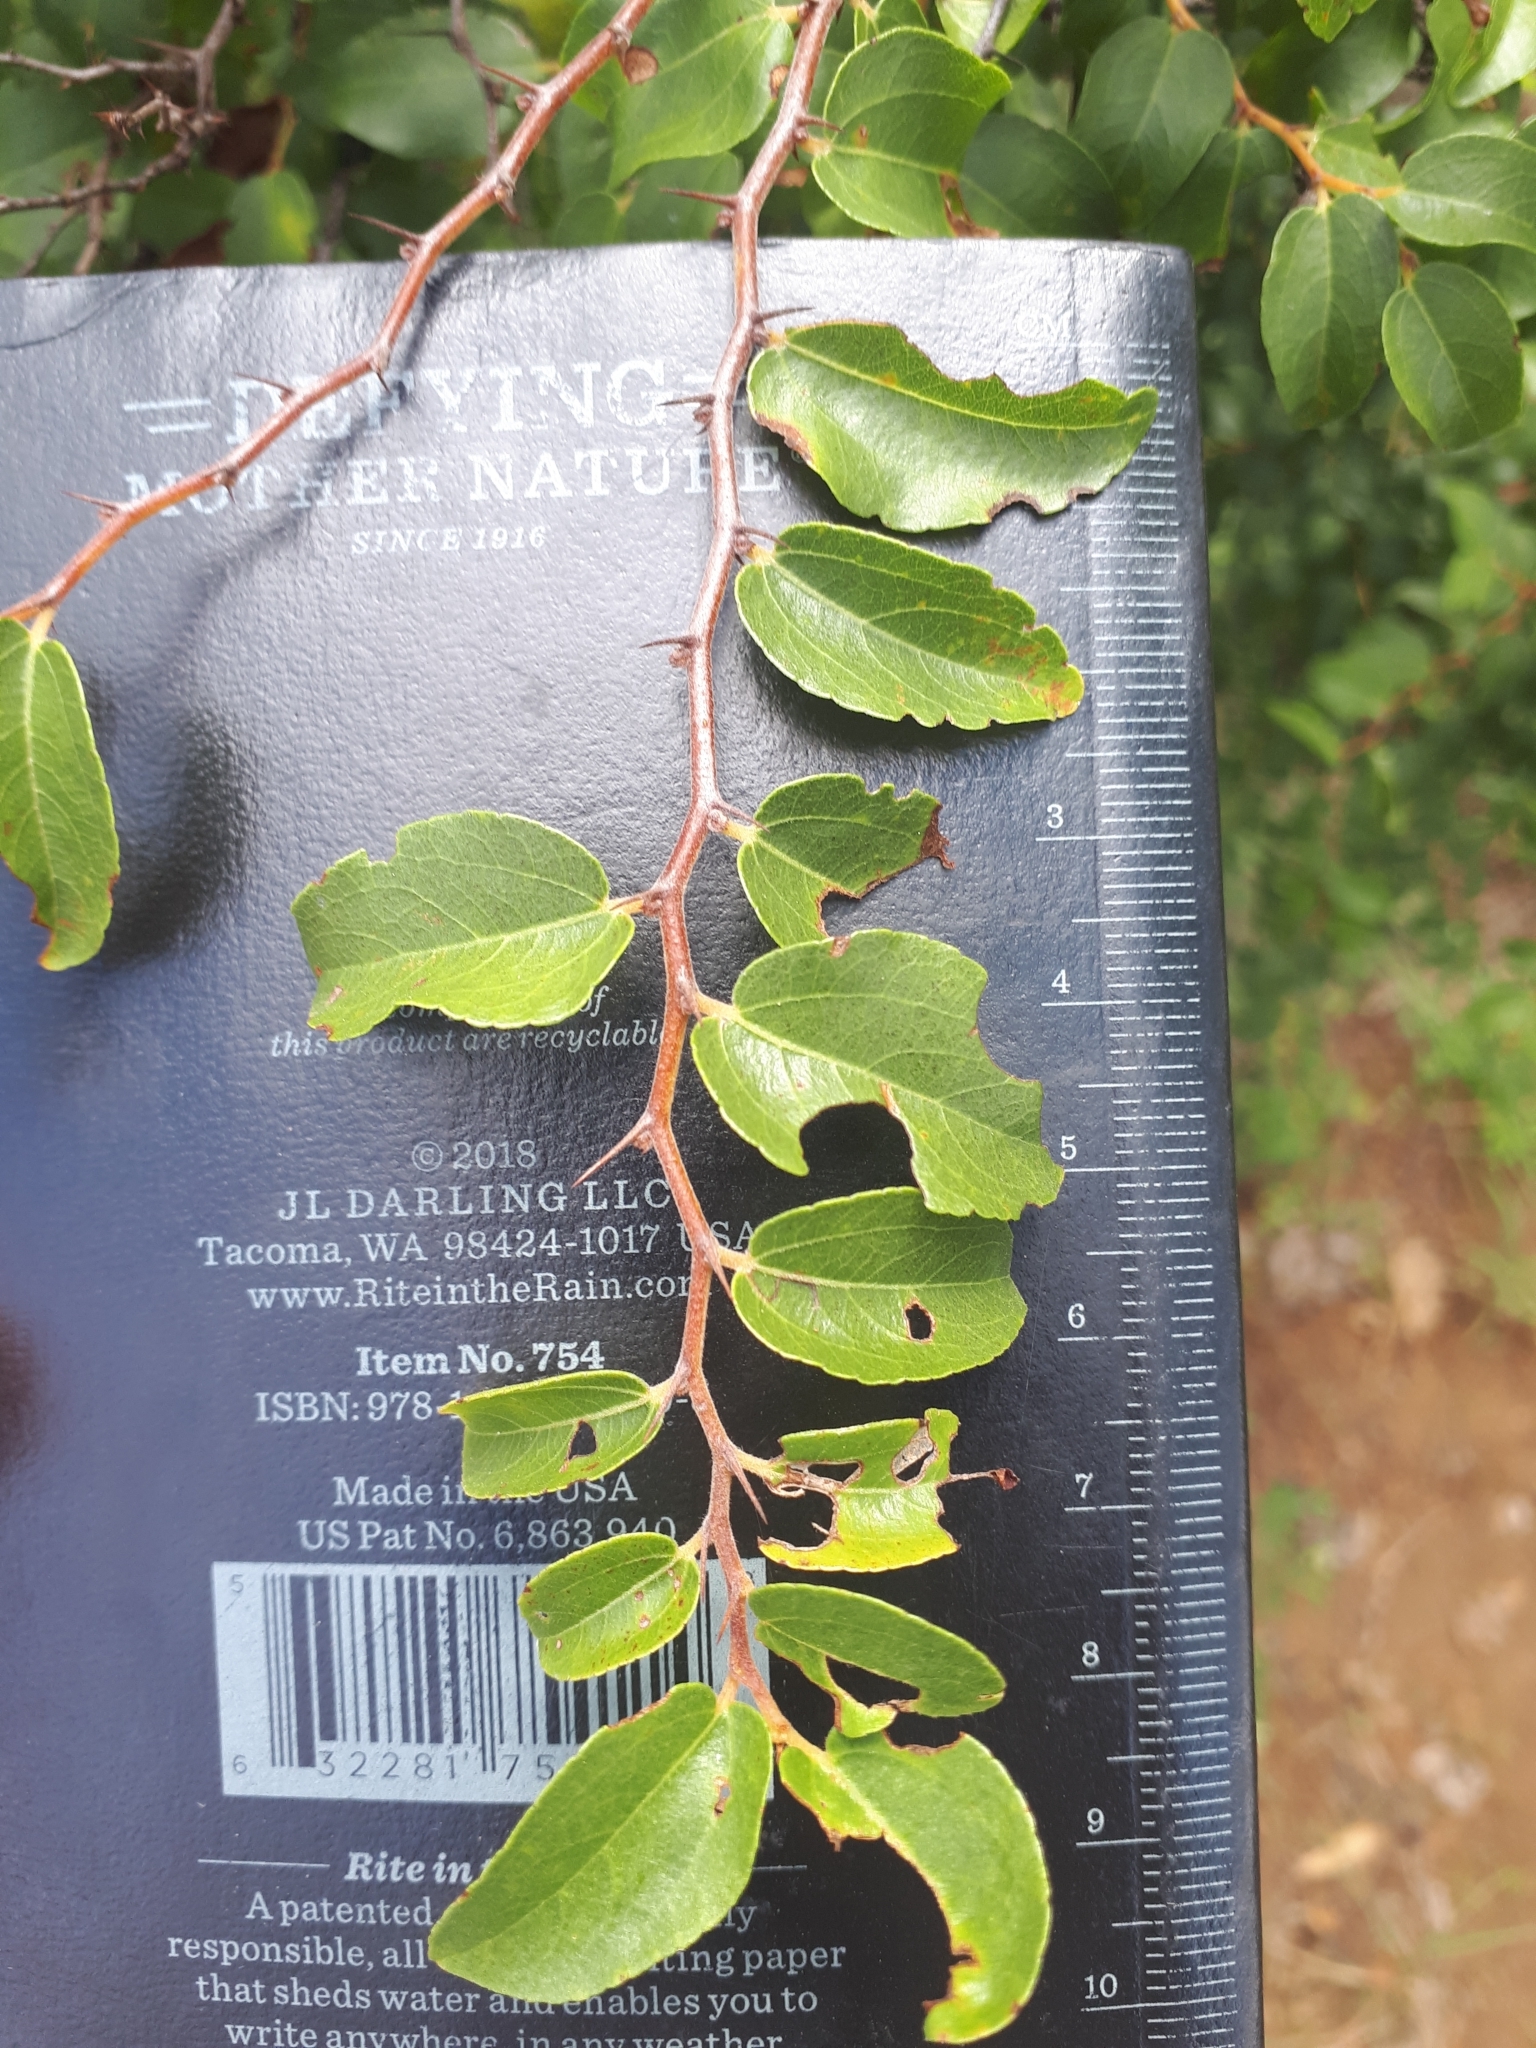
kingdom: Plantae
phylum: Tracheophyta
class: Magnoliopsida
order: Rosales
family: Rhamnaceae
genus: Ziziphus
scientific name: Ziziphus mucronata
